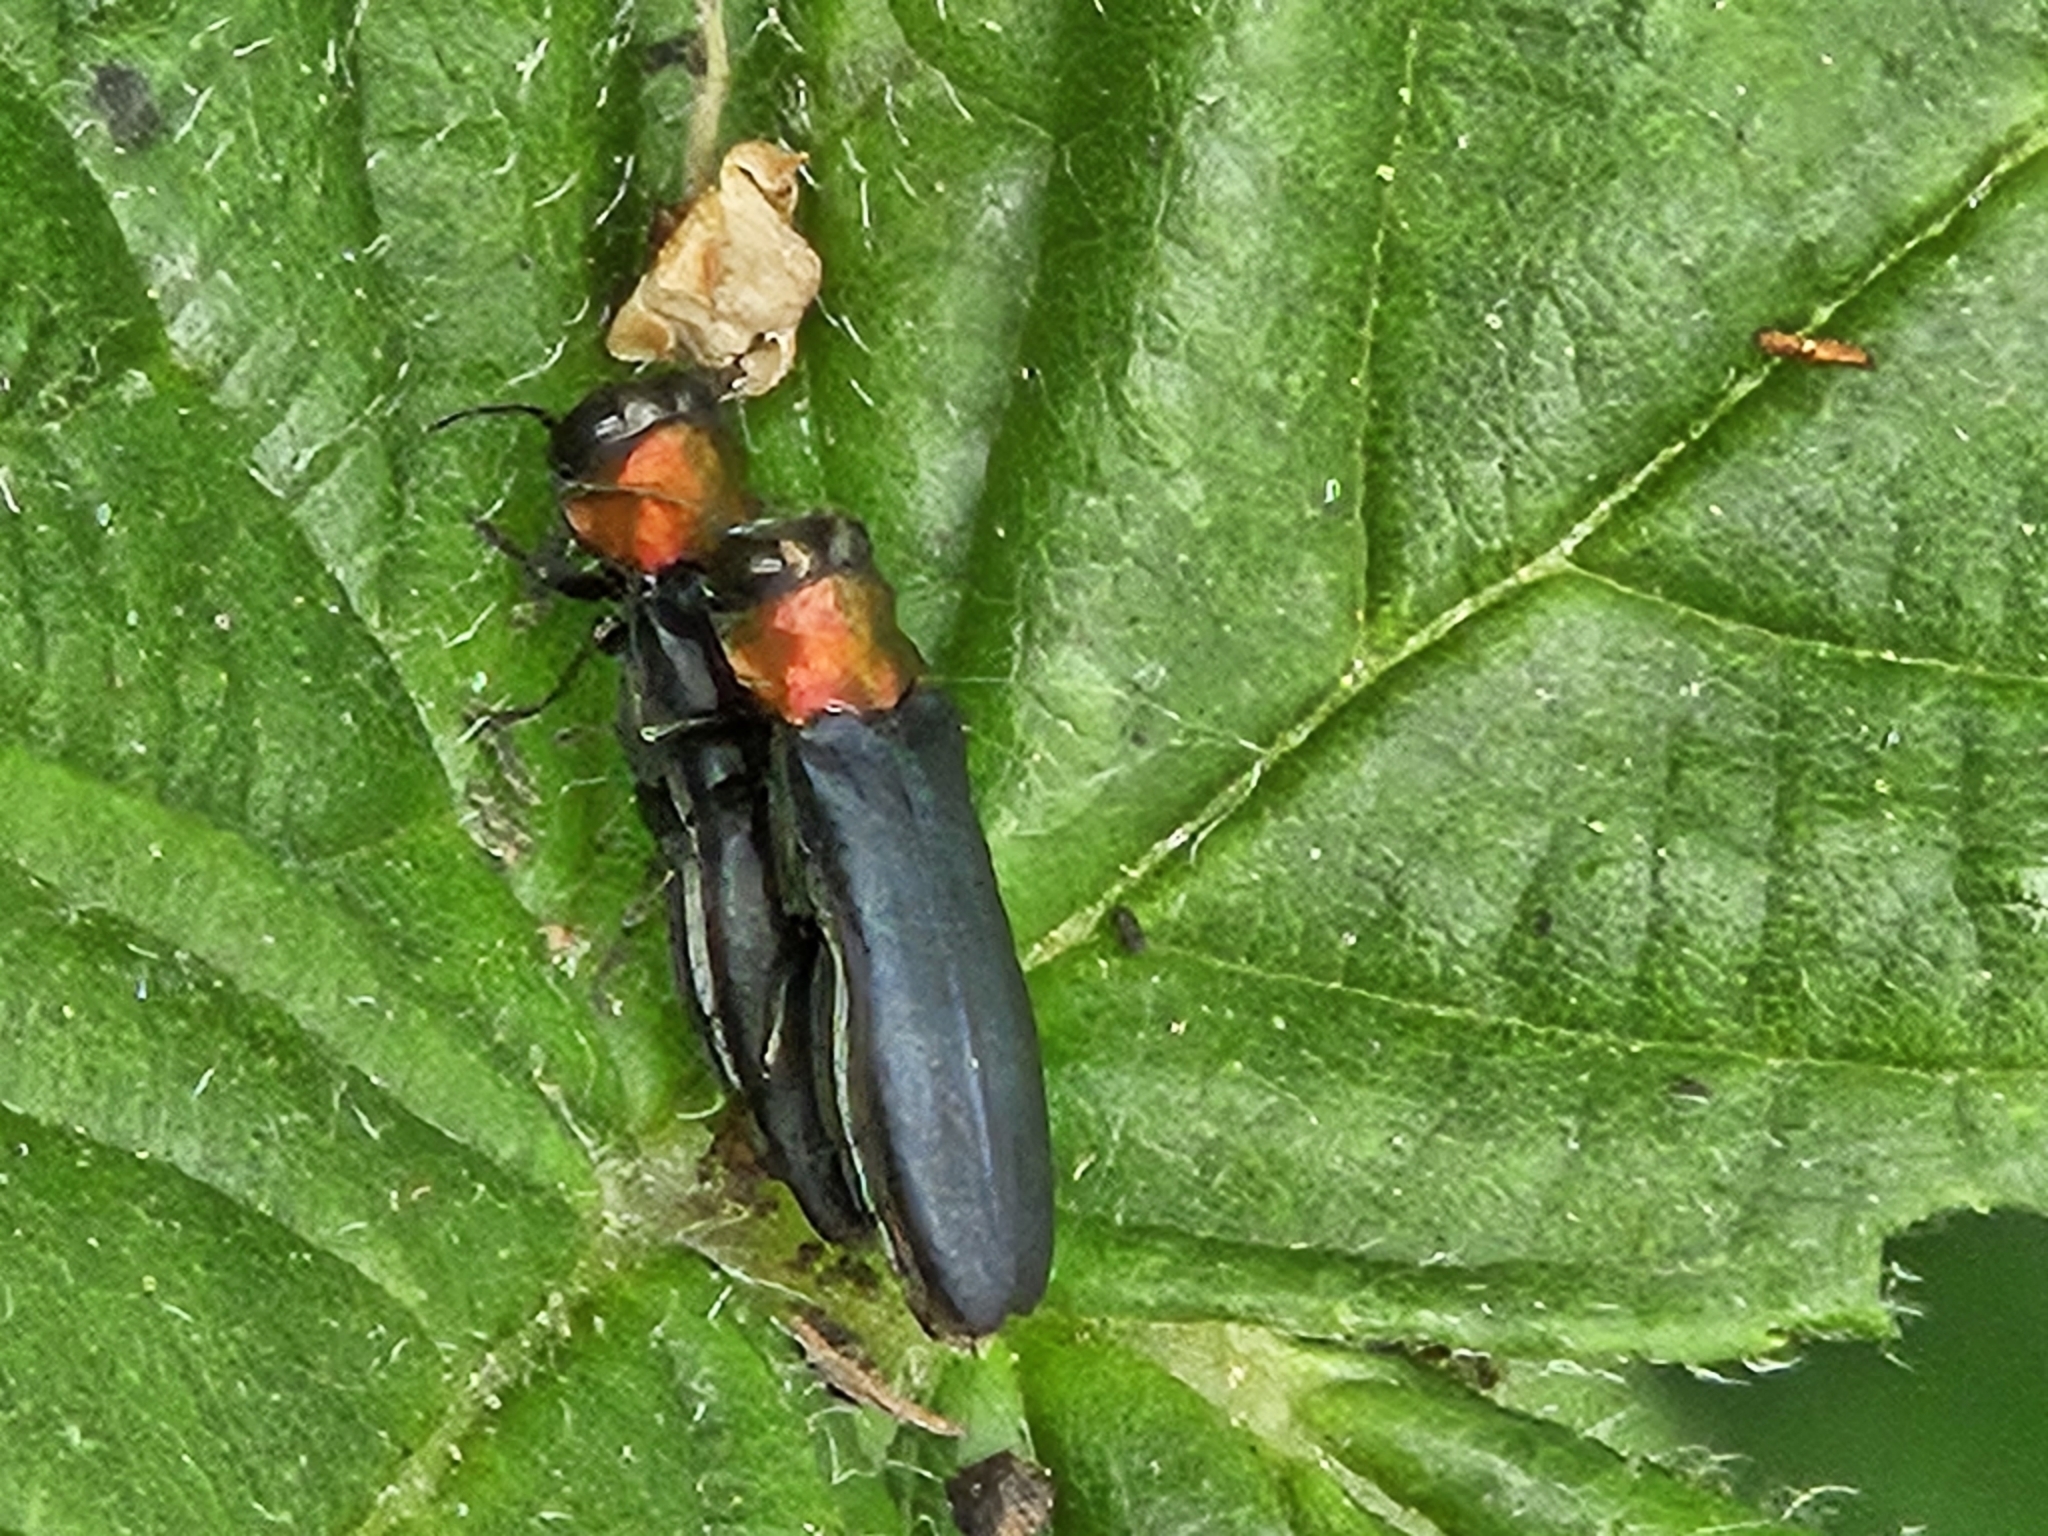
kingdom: Animalia
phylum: Arthropoda
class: Insecta
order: Coleoptera
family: Buprestidae
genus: Agrilus
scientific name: Agrilus ruficollis
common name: Red-necked cane borer beetle
